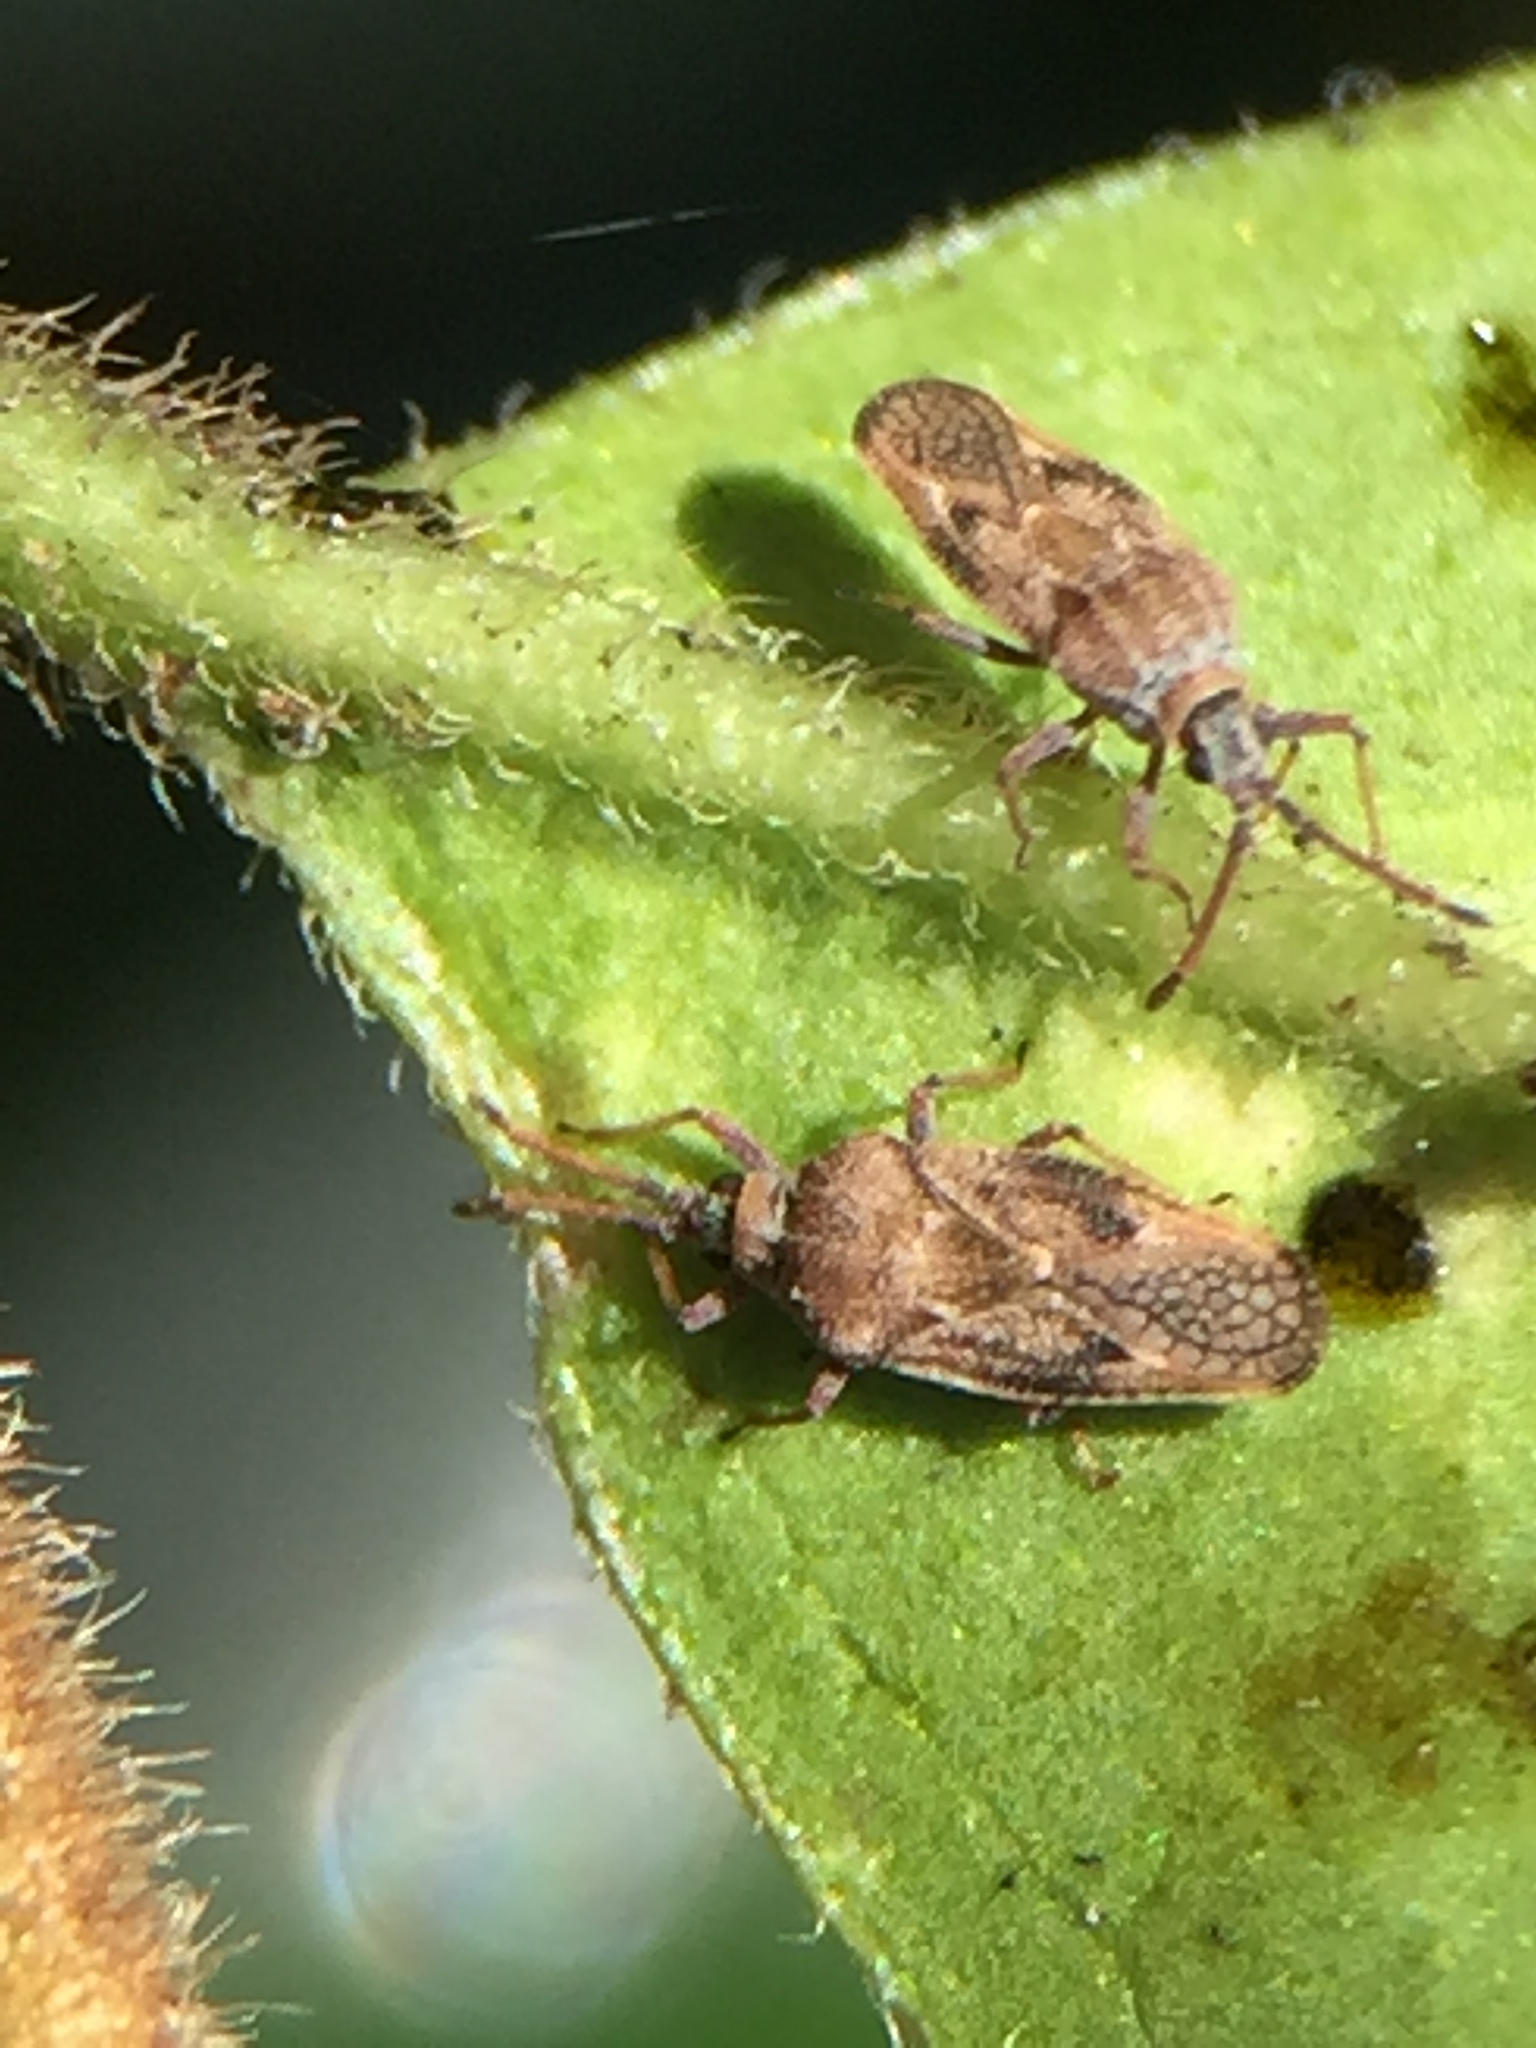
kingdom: Animalia
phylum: Arthropoda
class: Insecta
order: Hemiptera
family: Tingidae
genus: Leptoypha
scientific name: Leptoypha hospita
